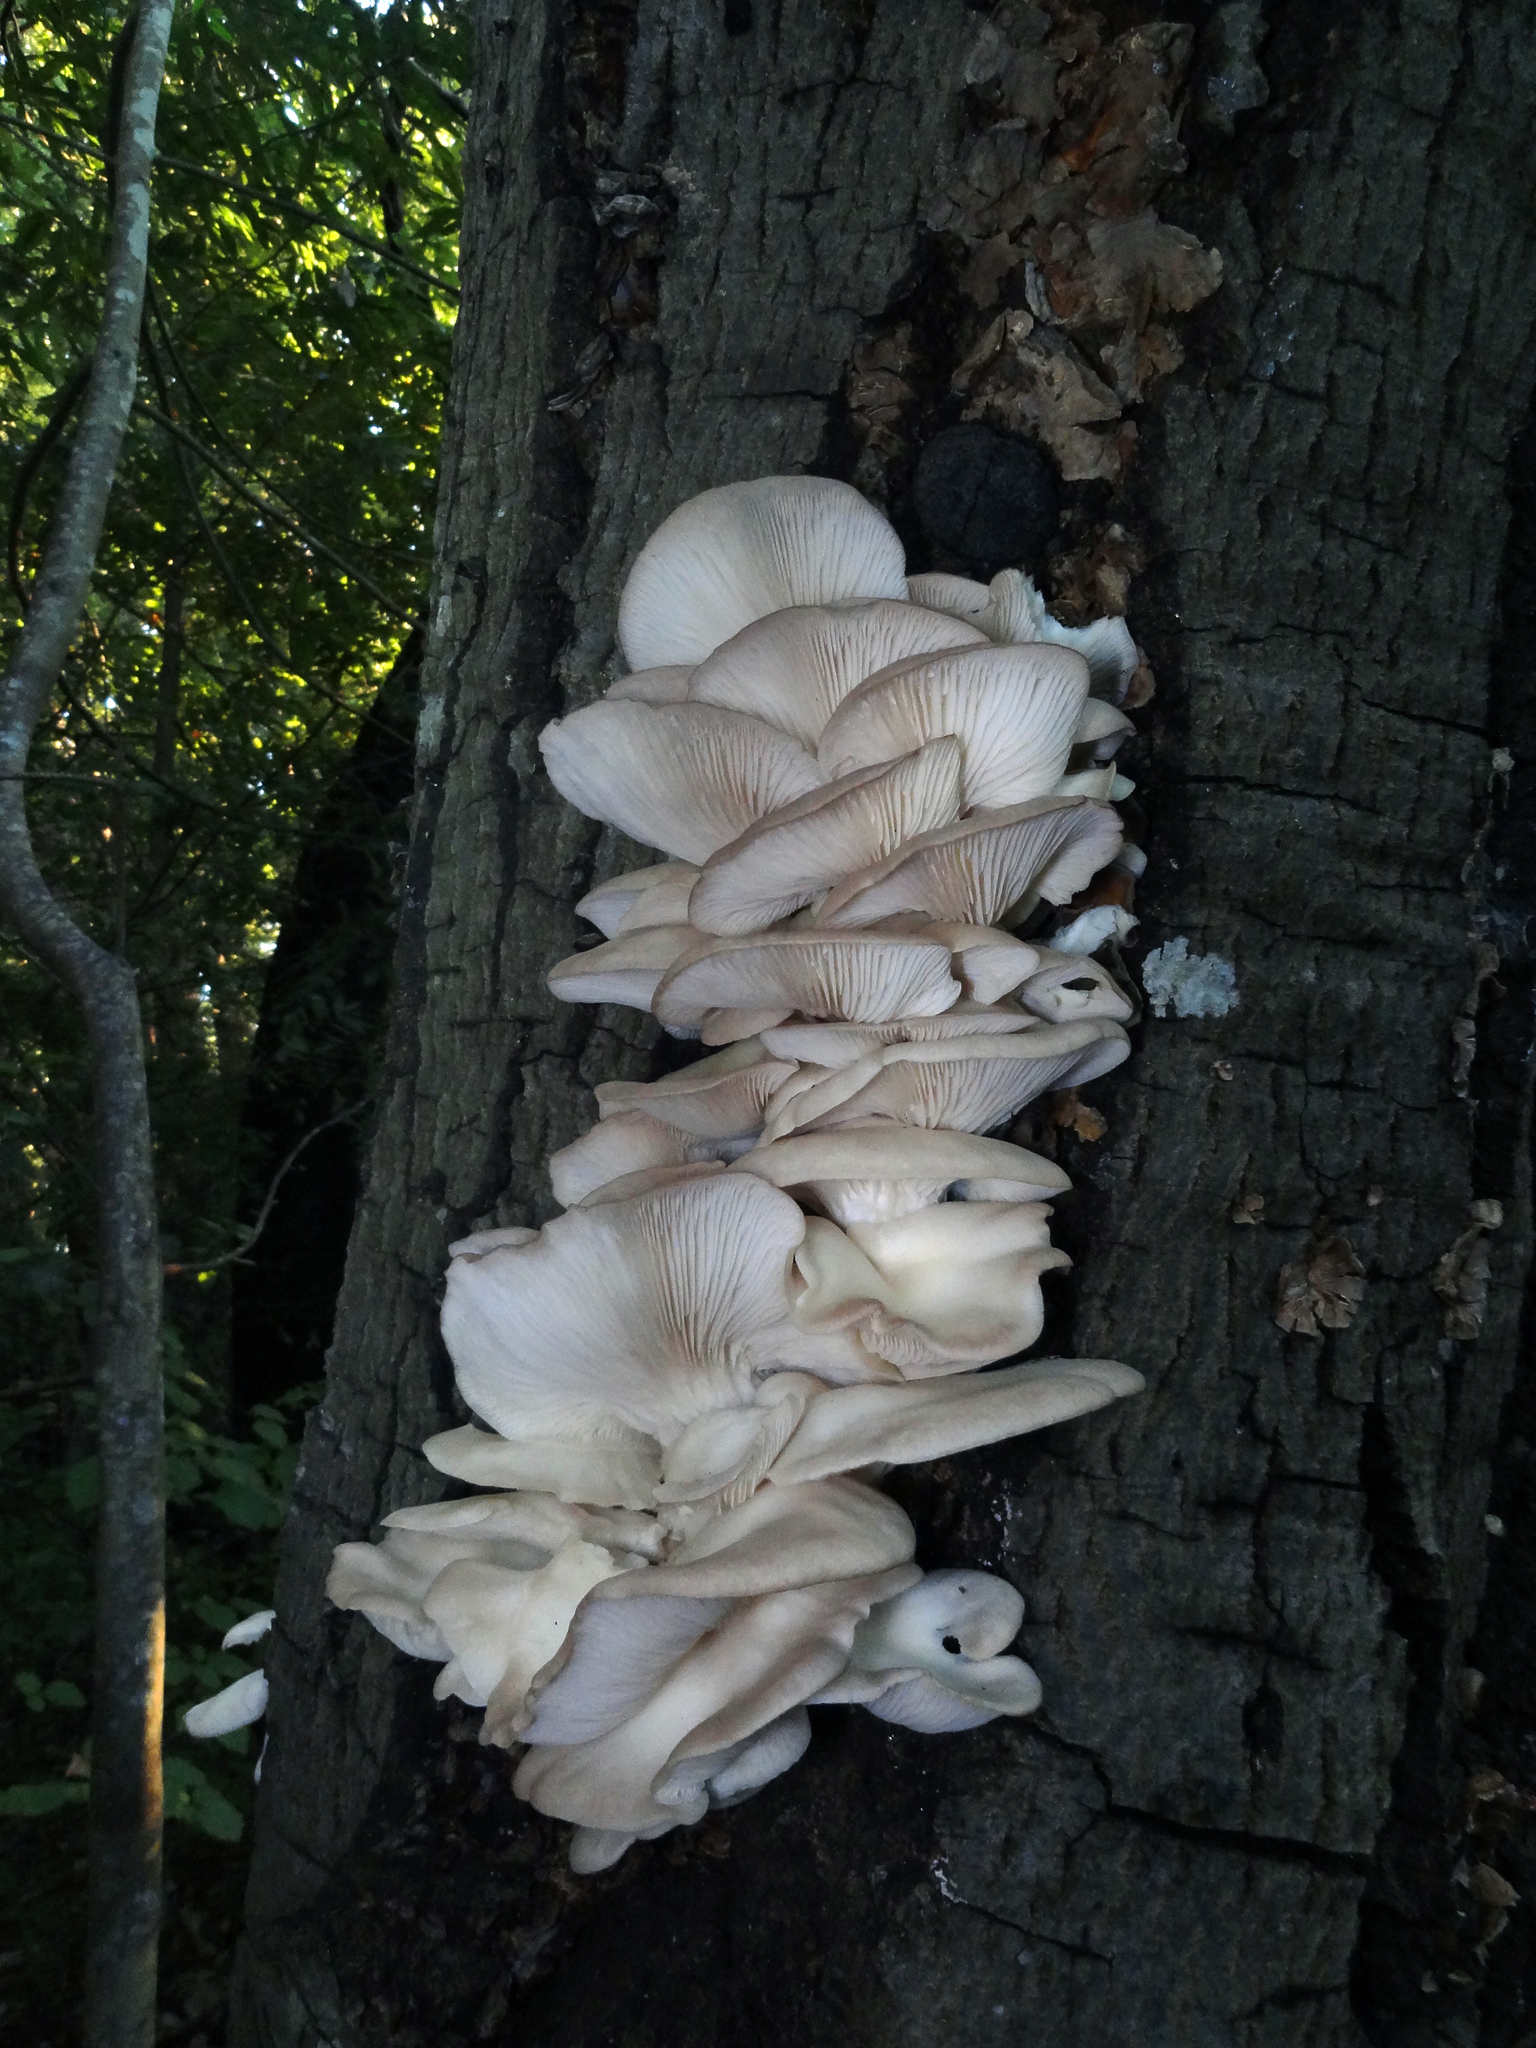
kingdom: Fungi
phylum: Basidiomycota
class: Agaricomycetes
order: Agaricales
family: Pleurotaceae
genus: Pleurotus
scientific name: Pleurotus ostreatus
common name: Oyster mushroom
